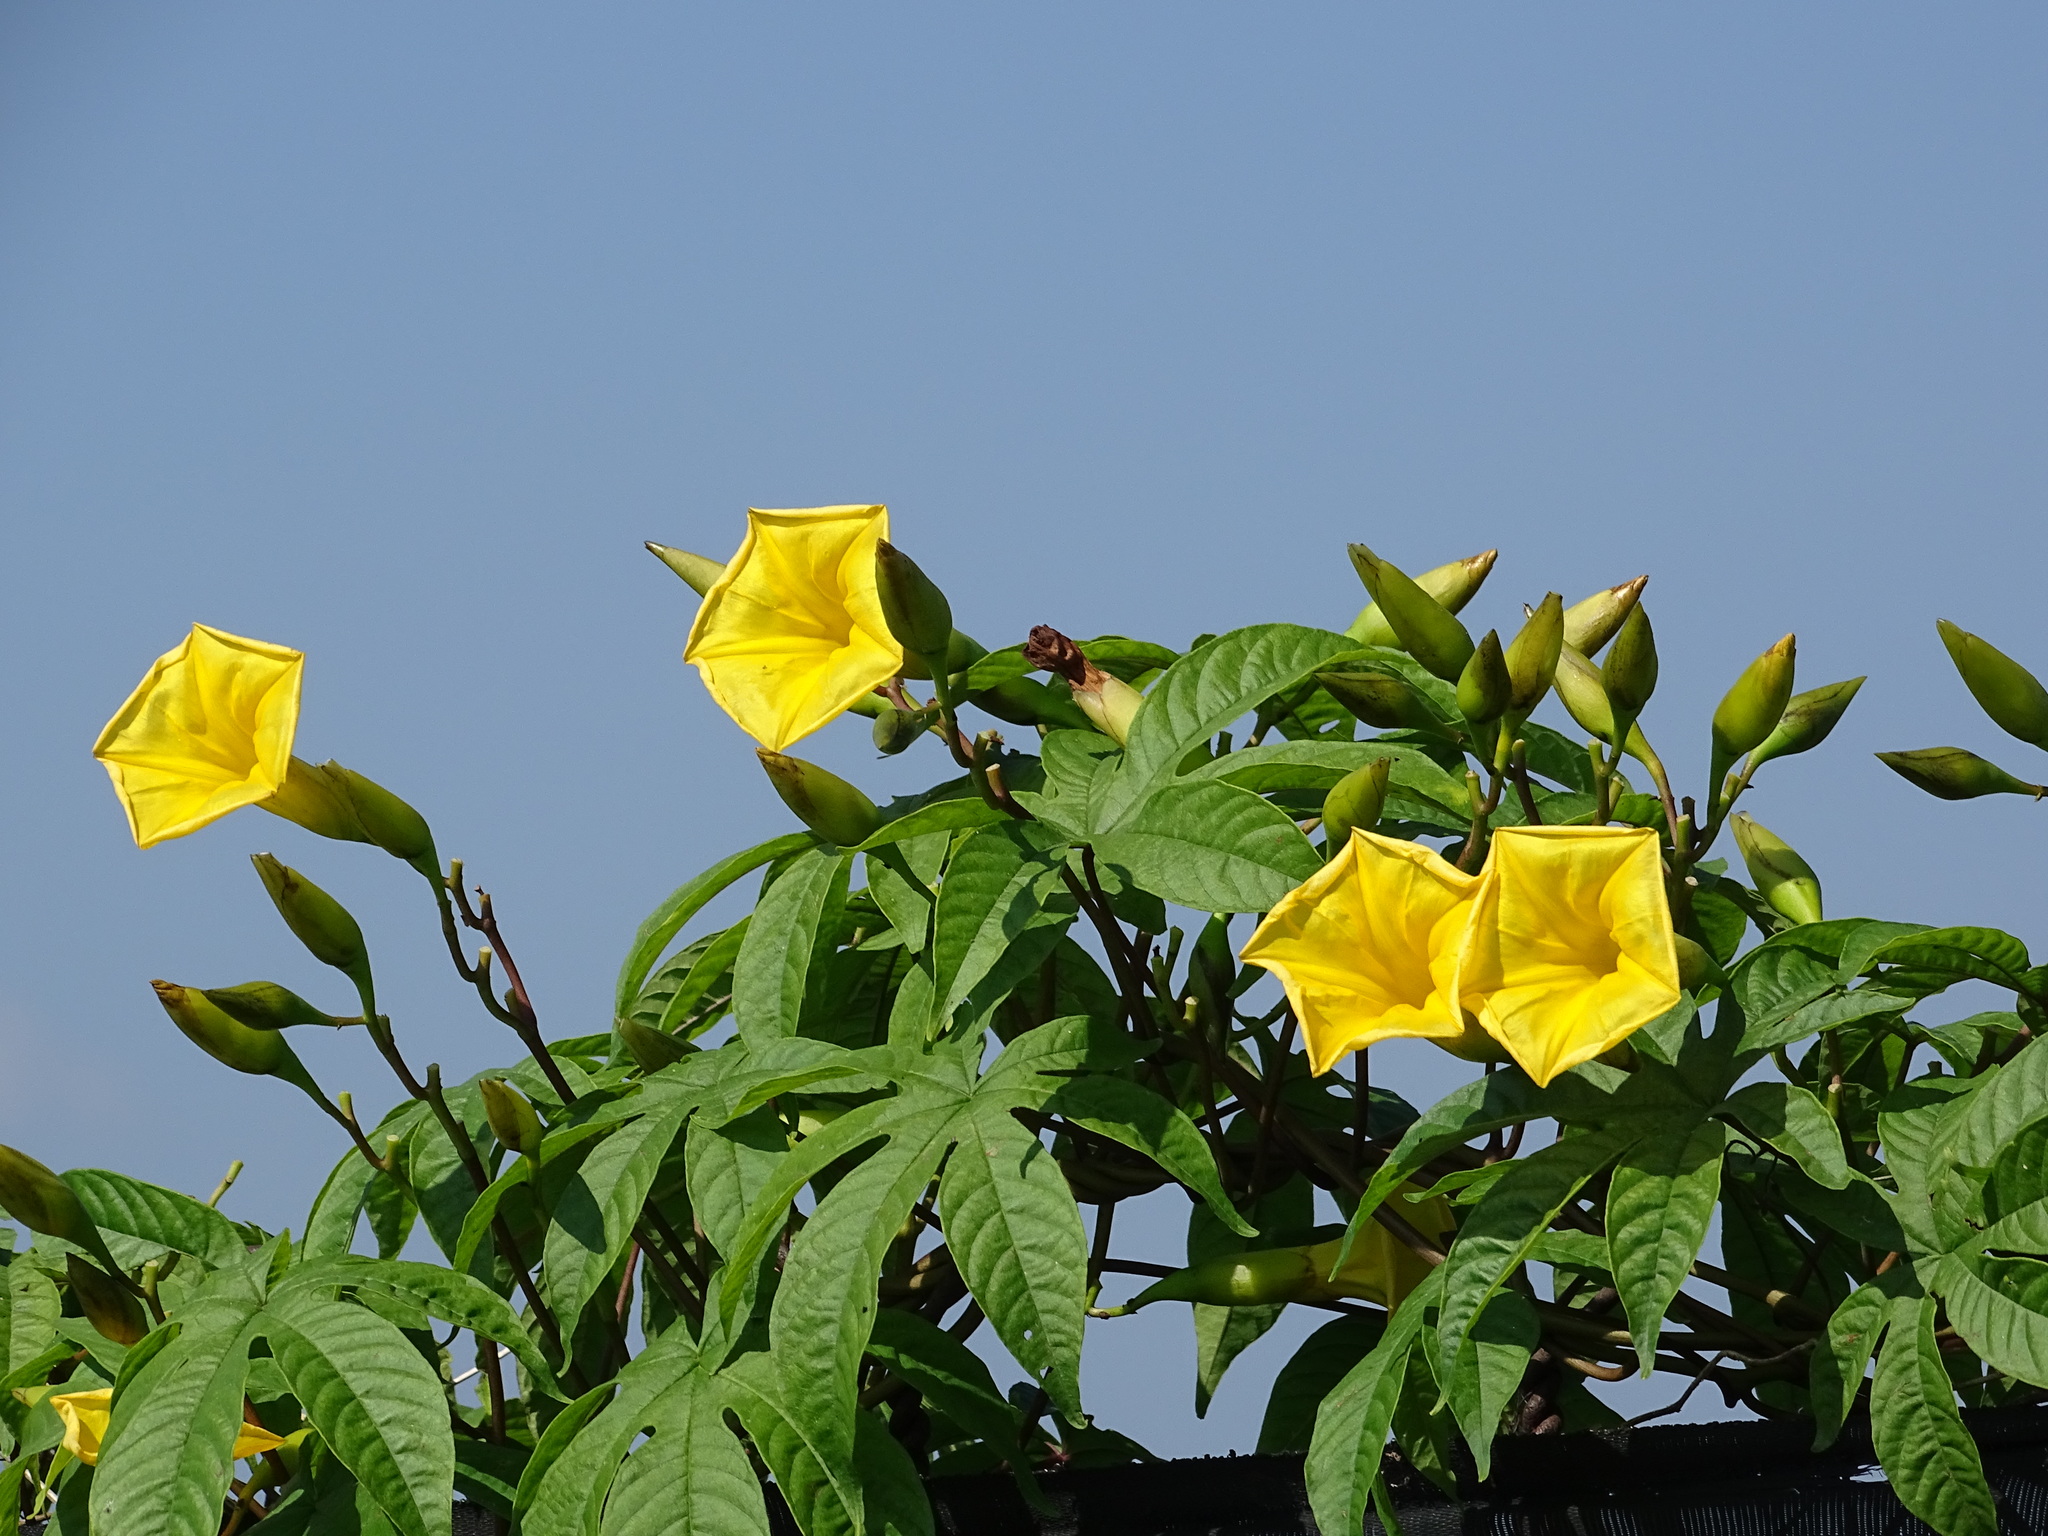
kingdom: Plantae
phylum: Tracheophyta
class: Magnoliopsida
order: Solanales
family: Convolvulaceae
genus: Distimake
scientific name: Distimake tuberosus
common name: Spanish arborvine
